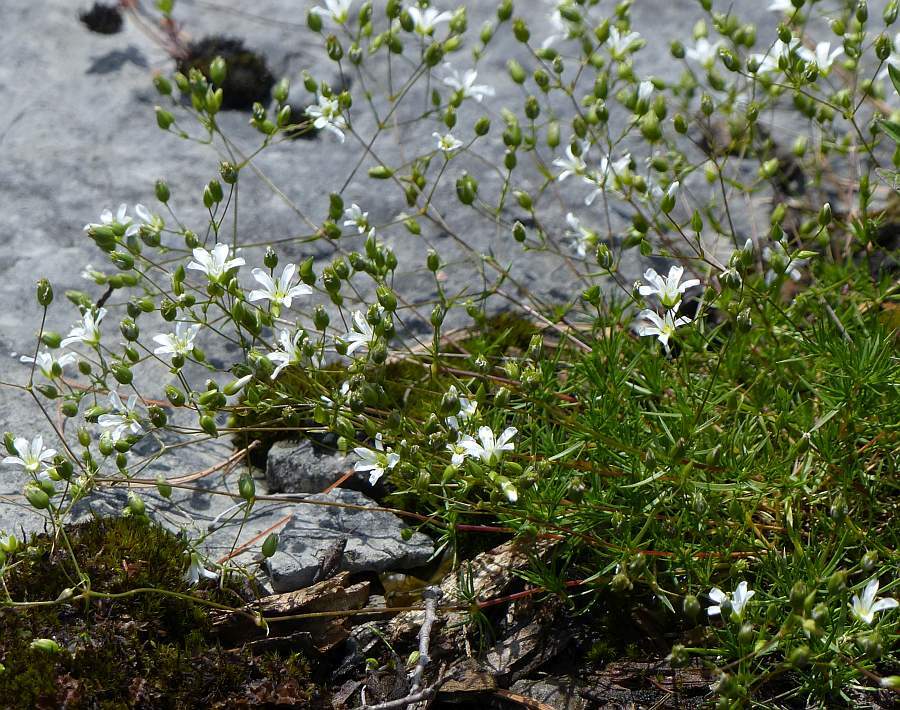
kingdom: Plantae
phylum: Tracheophyta
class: Magnoliopsida
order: Caryophyllales
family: Caryophyllaceae
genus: Sabulina
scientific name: Sabulina michauxii
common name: Michaux's stitchwort
